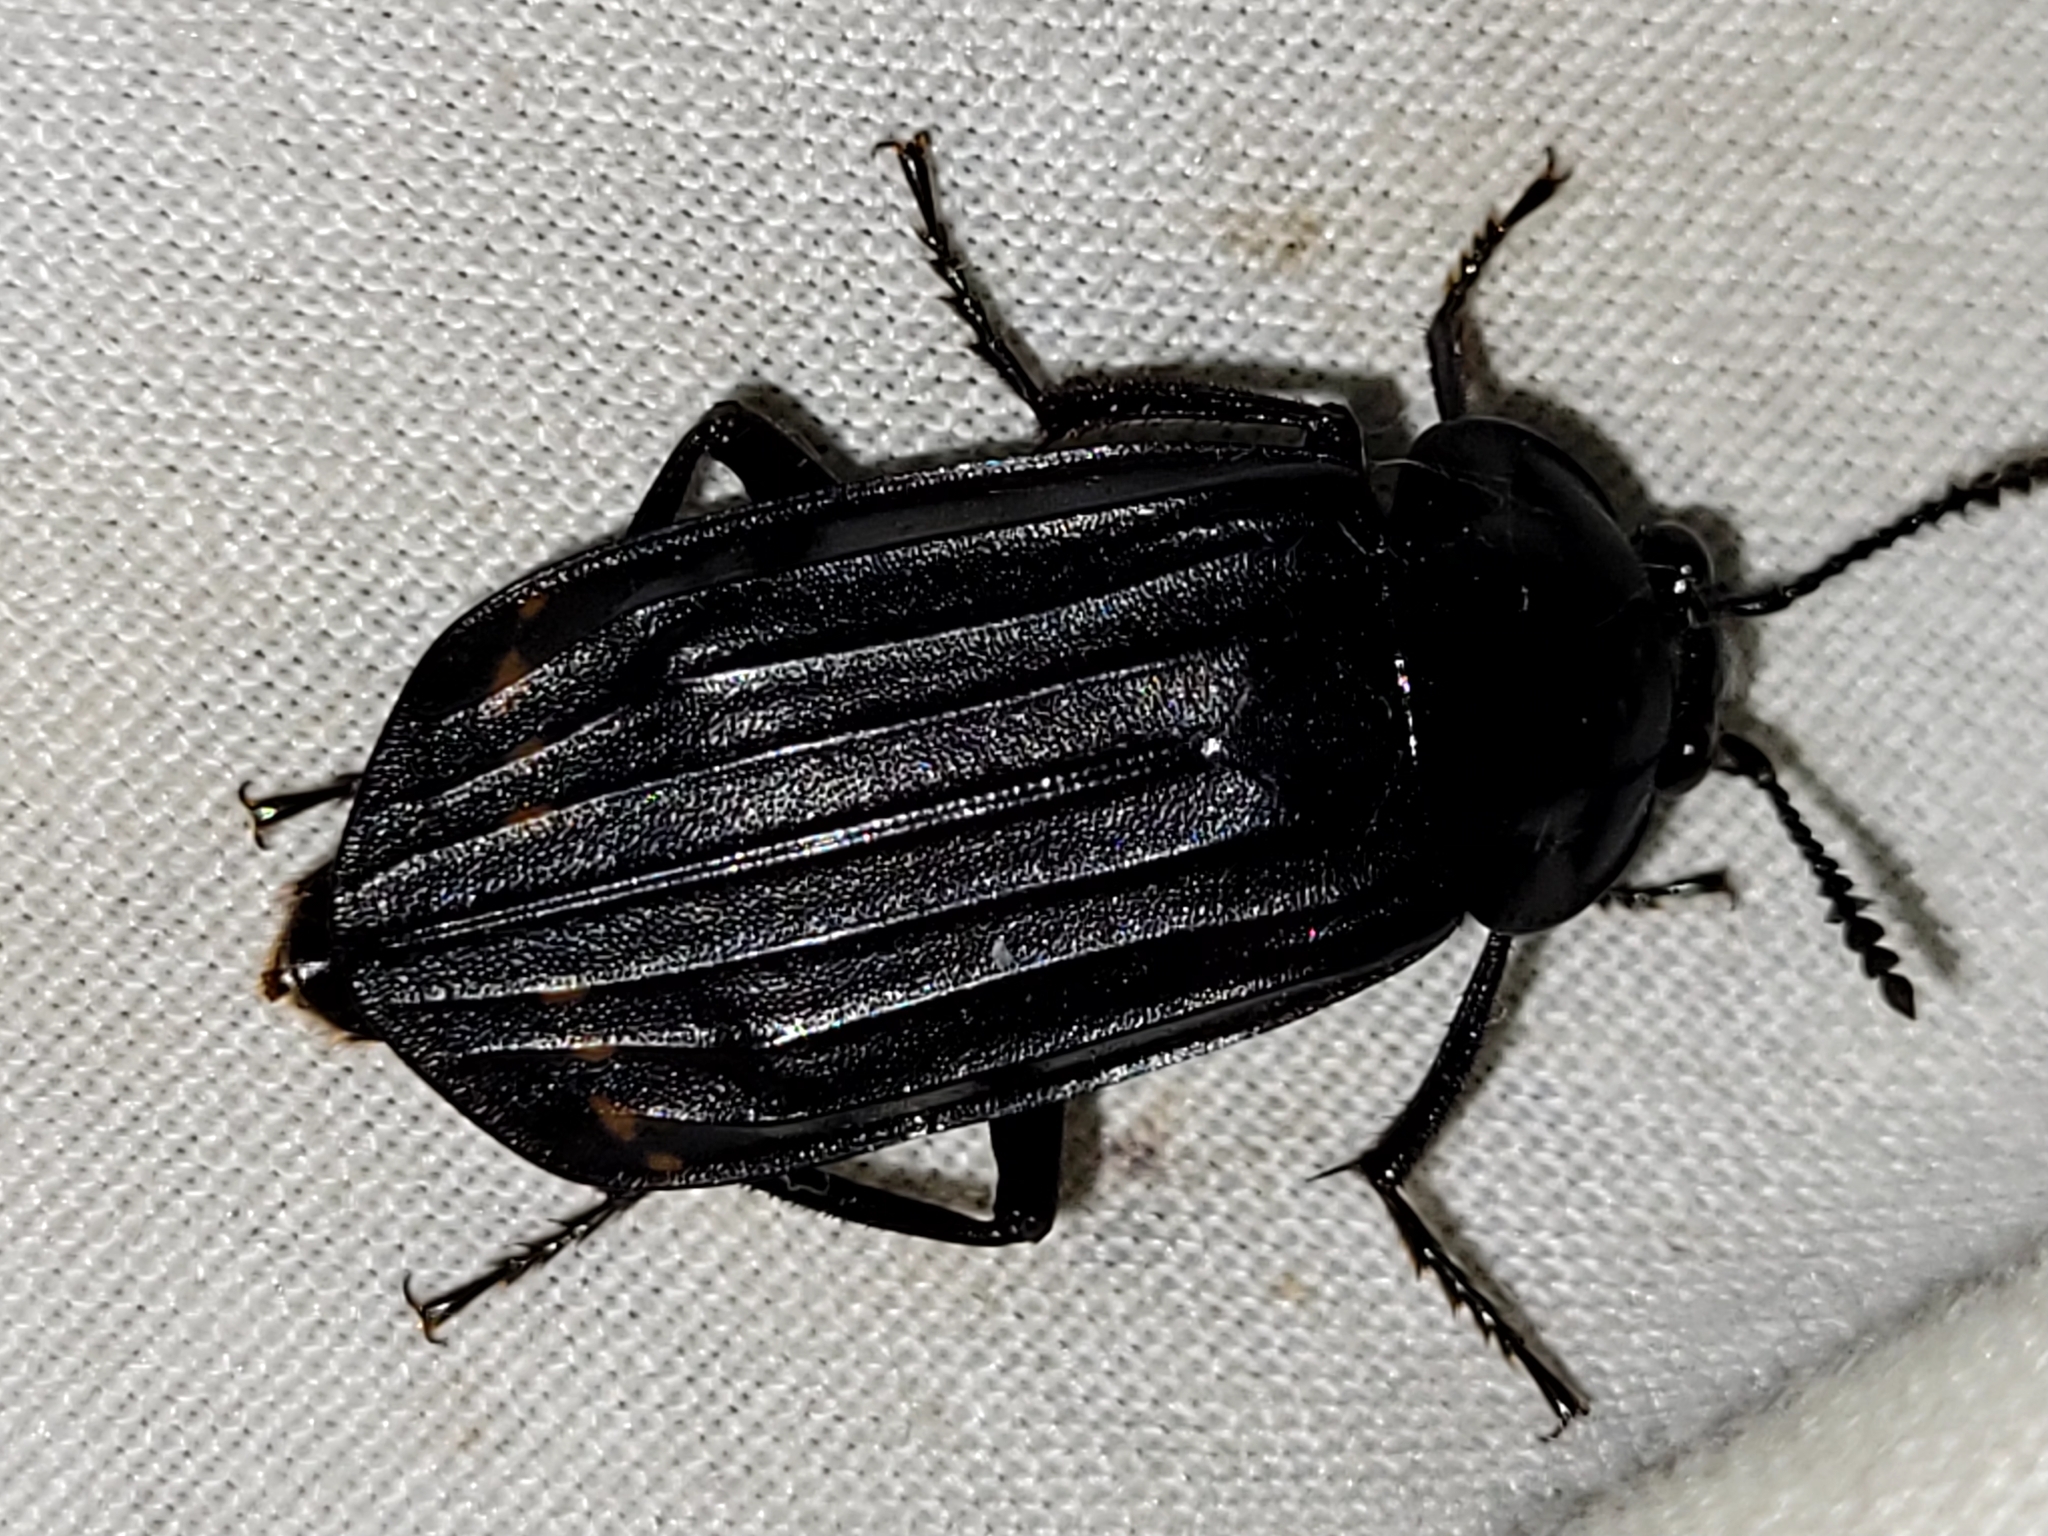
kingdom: Animalia
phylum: Arthropoda
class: Insecta
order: Coleoptera
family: Staphylinidae
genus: Necrodes
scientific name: Necrodes surinamensis
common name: Red-lined carrion beetle
